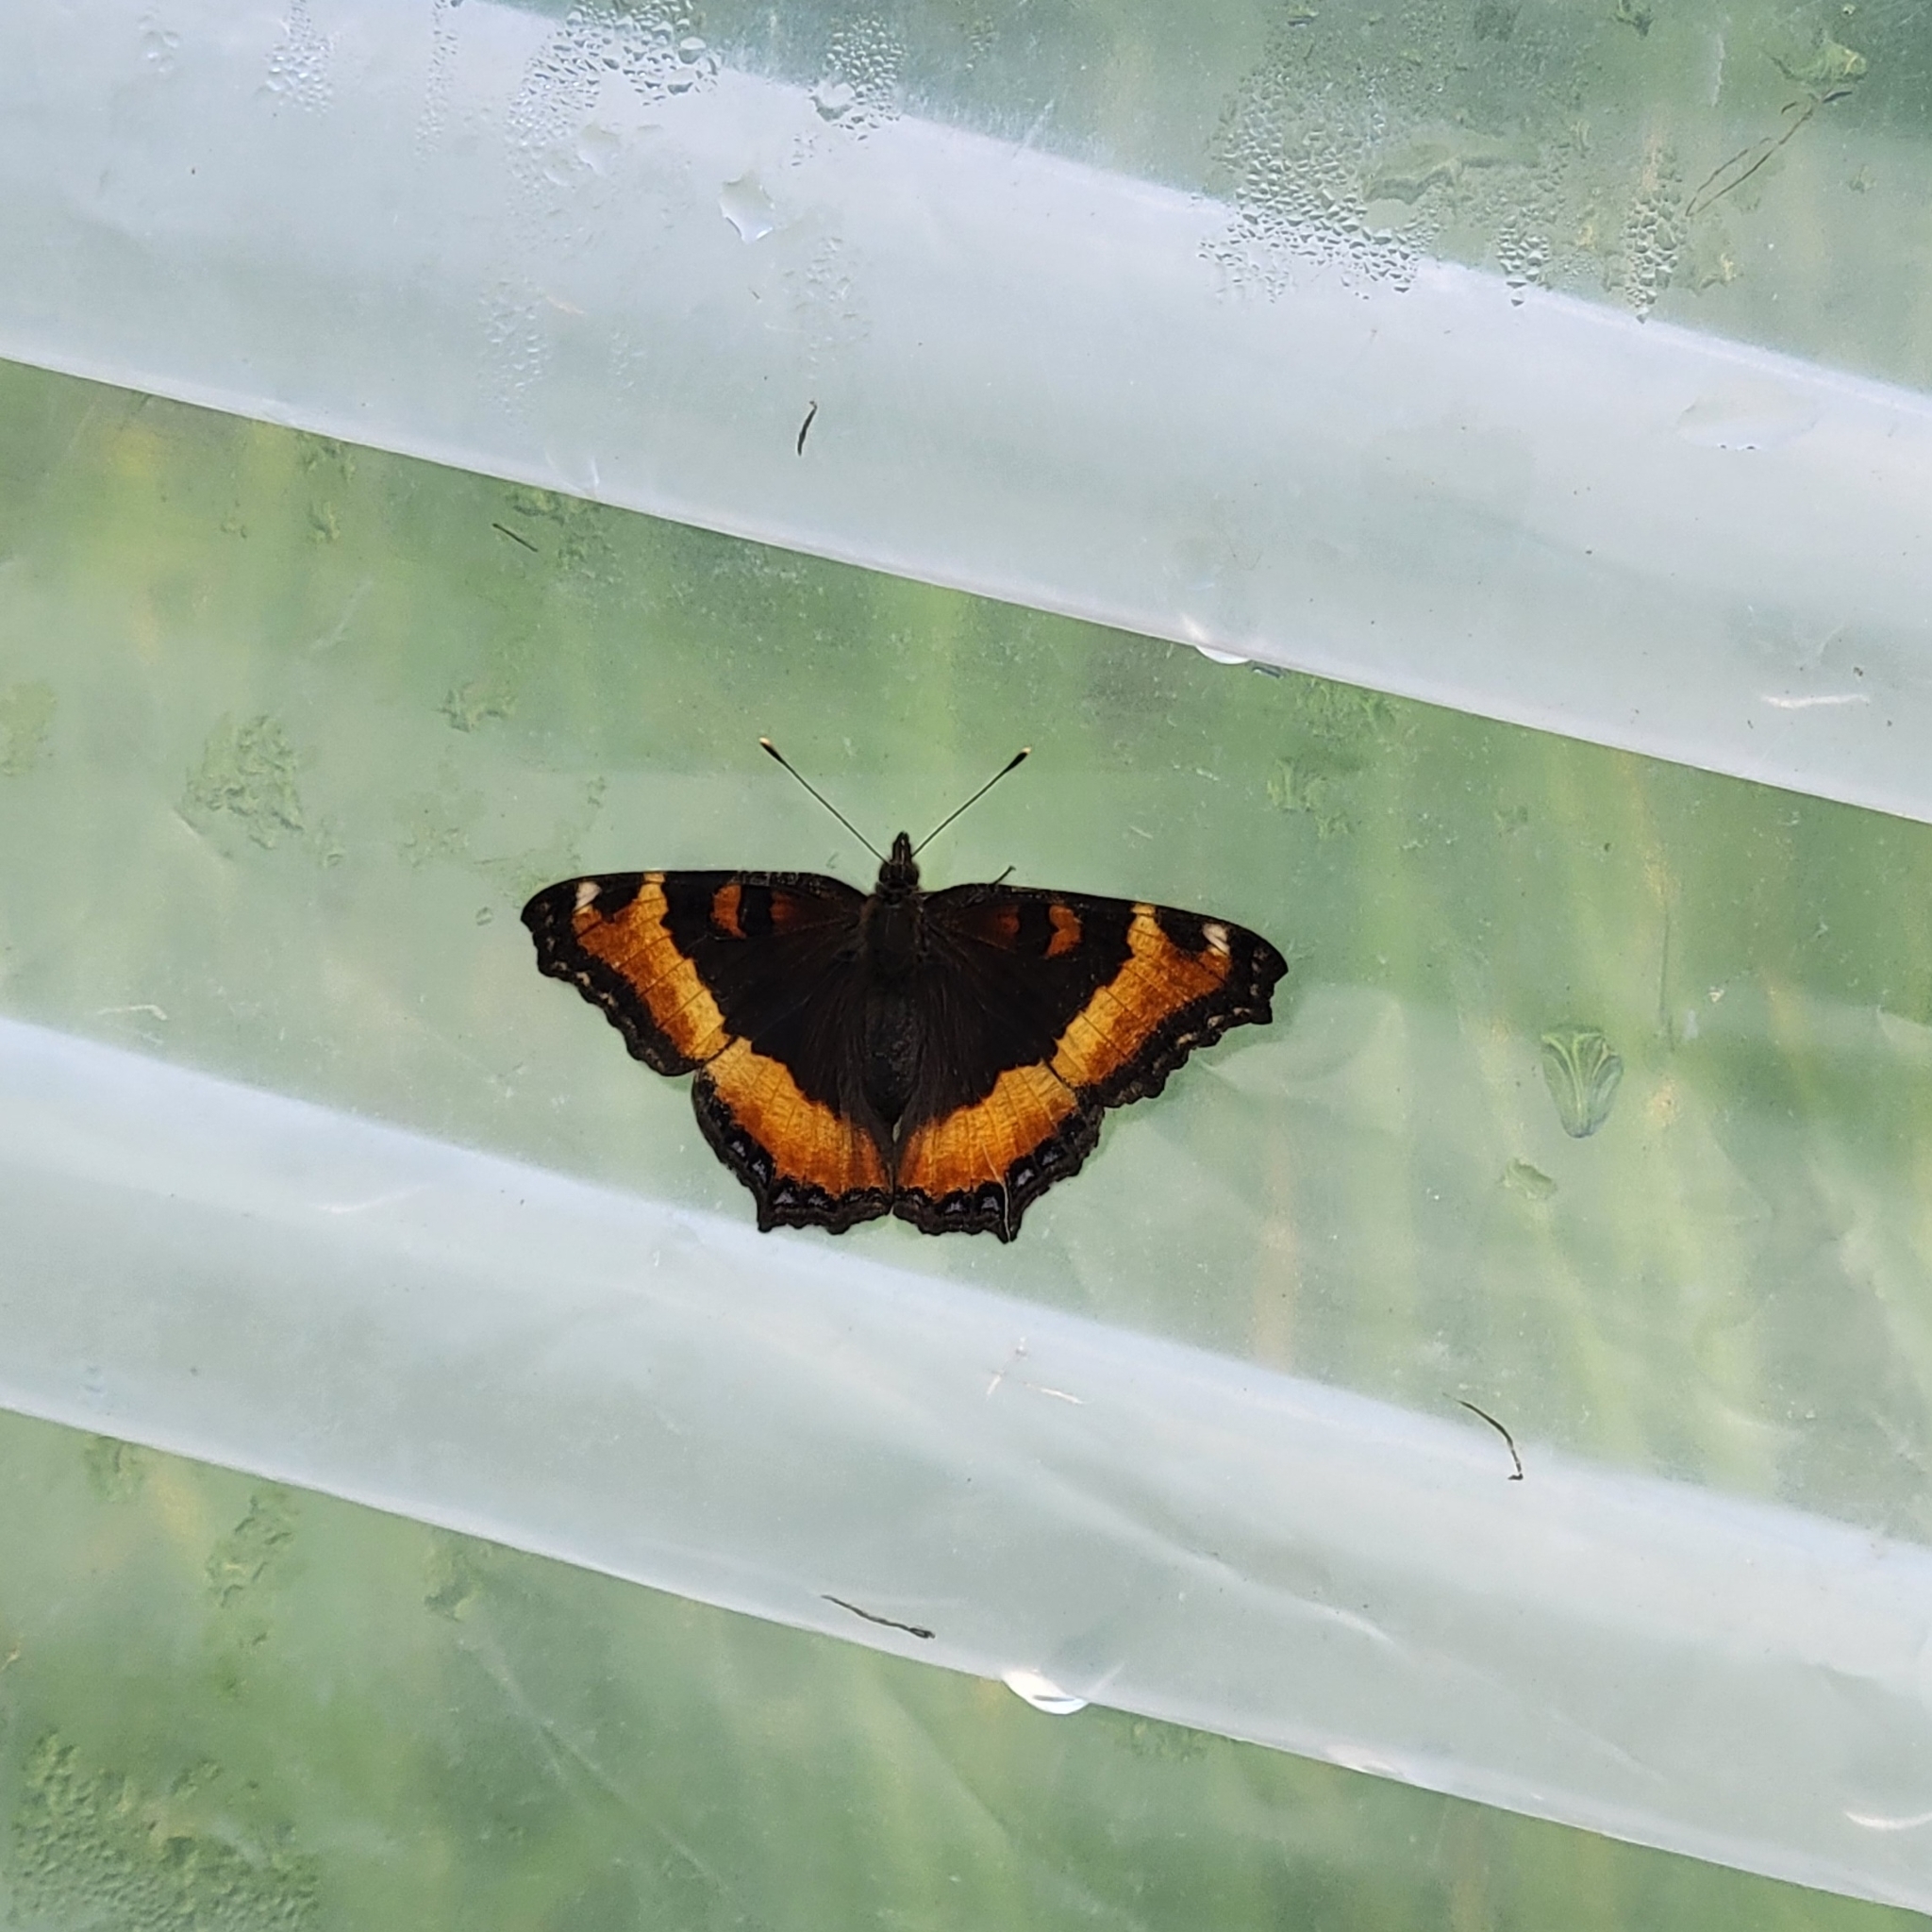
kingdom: Animalia
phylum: Arthropoda
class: Insecta
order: Lepidoptera
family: Nymphalidae
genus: Aglais
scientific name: Aglais milberti
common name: Milbert's tortoiseshell
